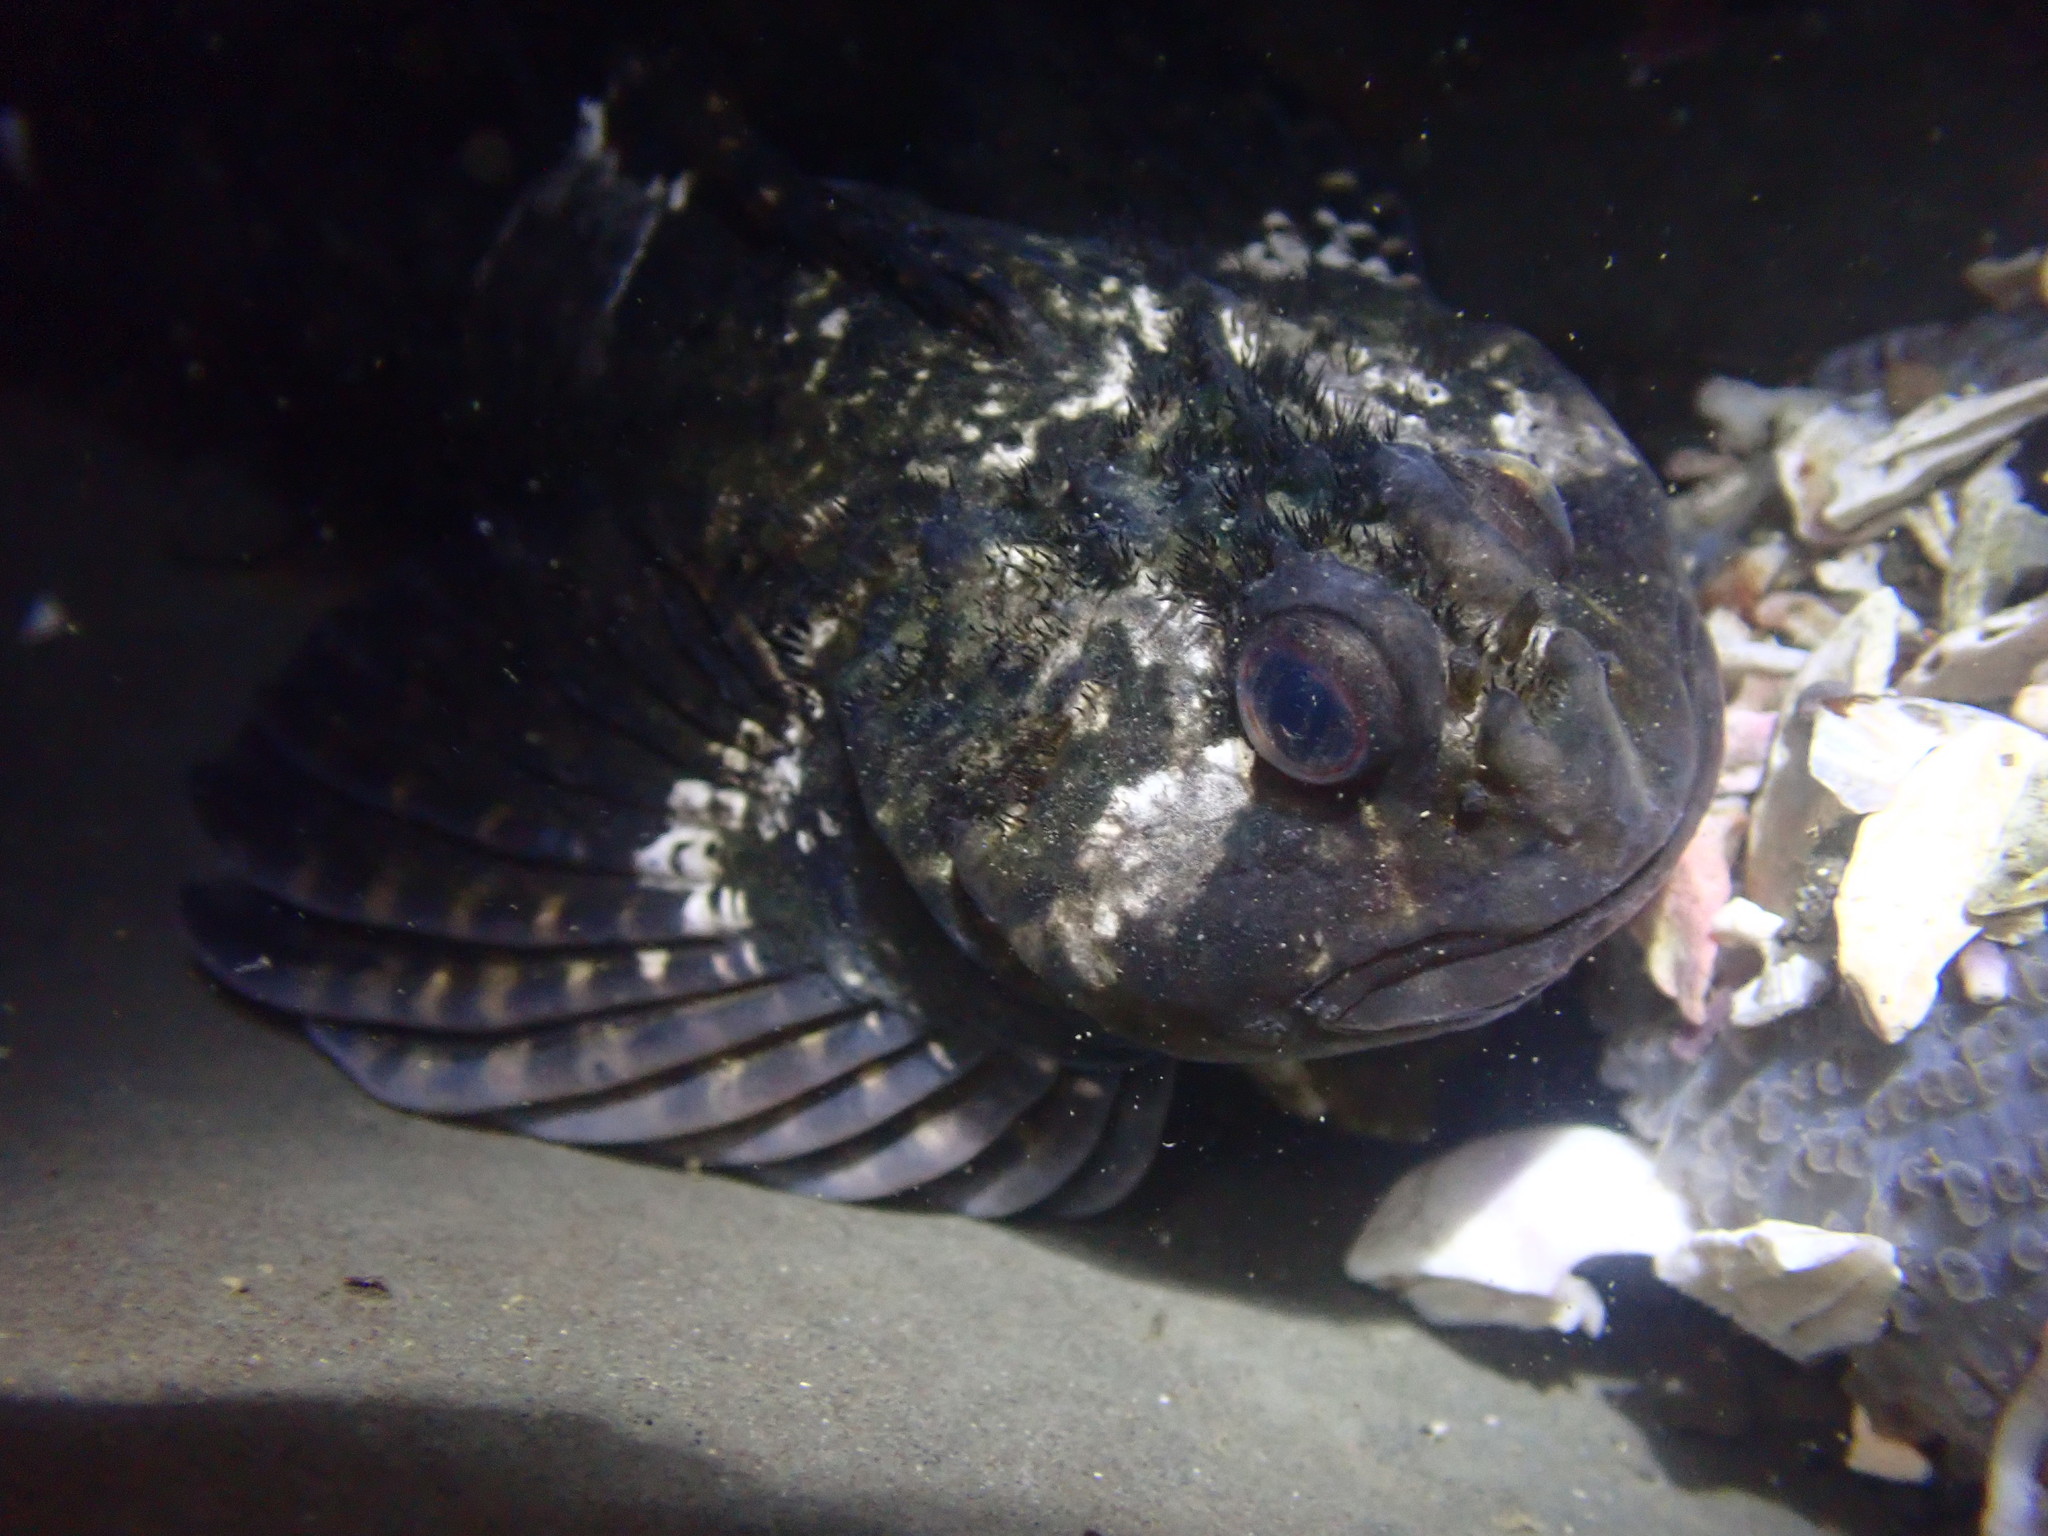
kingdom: Animalia
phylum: Chordata
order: Scorpaeniformes
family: Cottidae
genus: Clinocottus
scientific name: Clinocottus globiceps
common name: Mosshead sculpin
